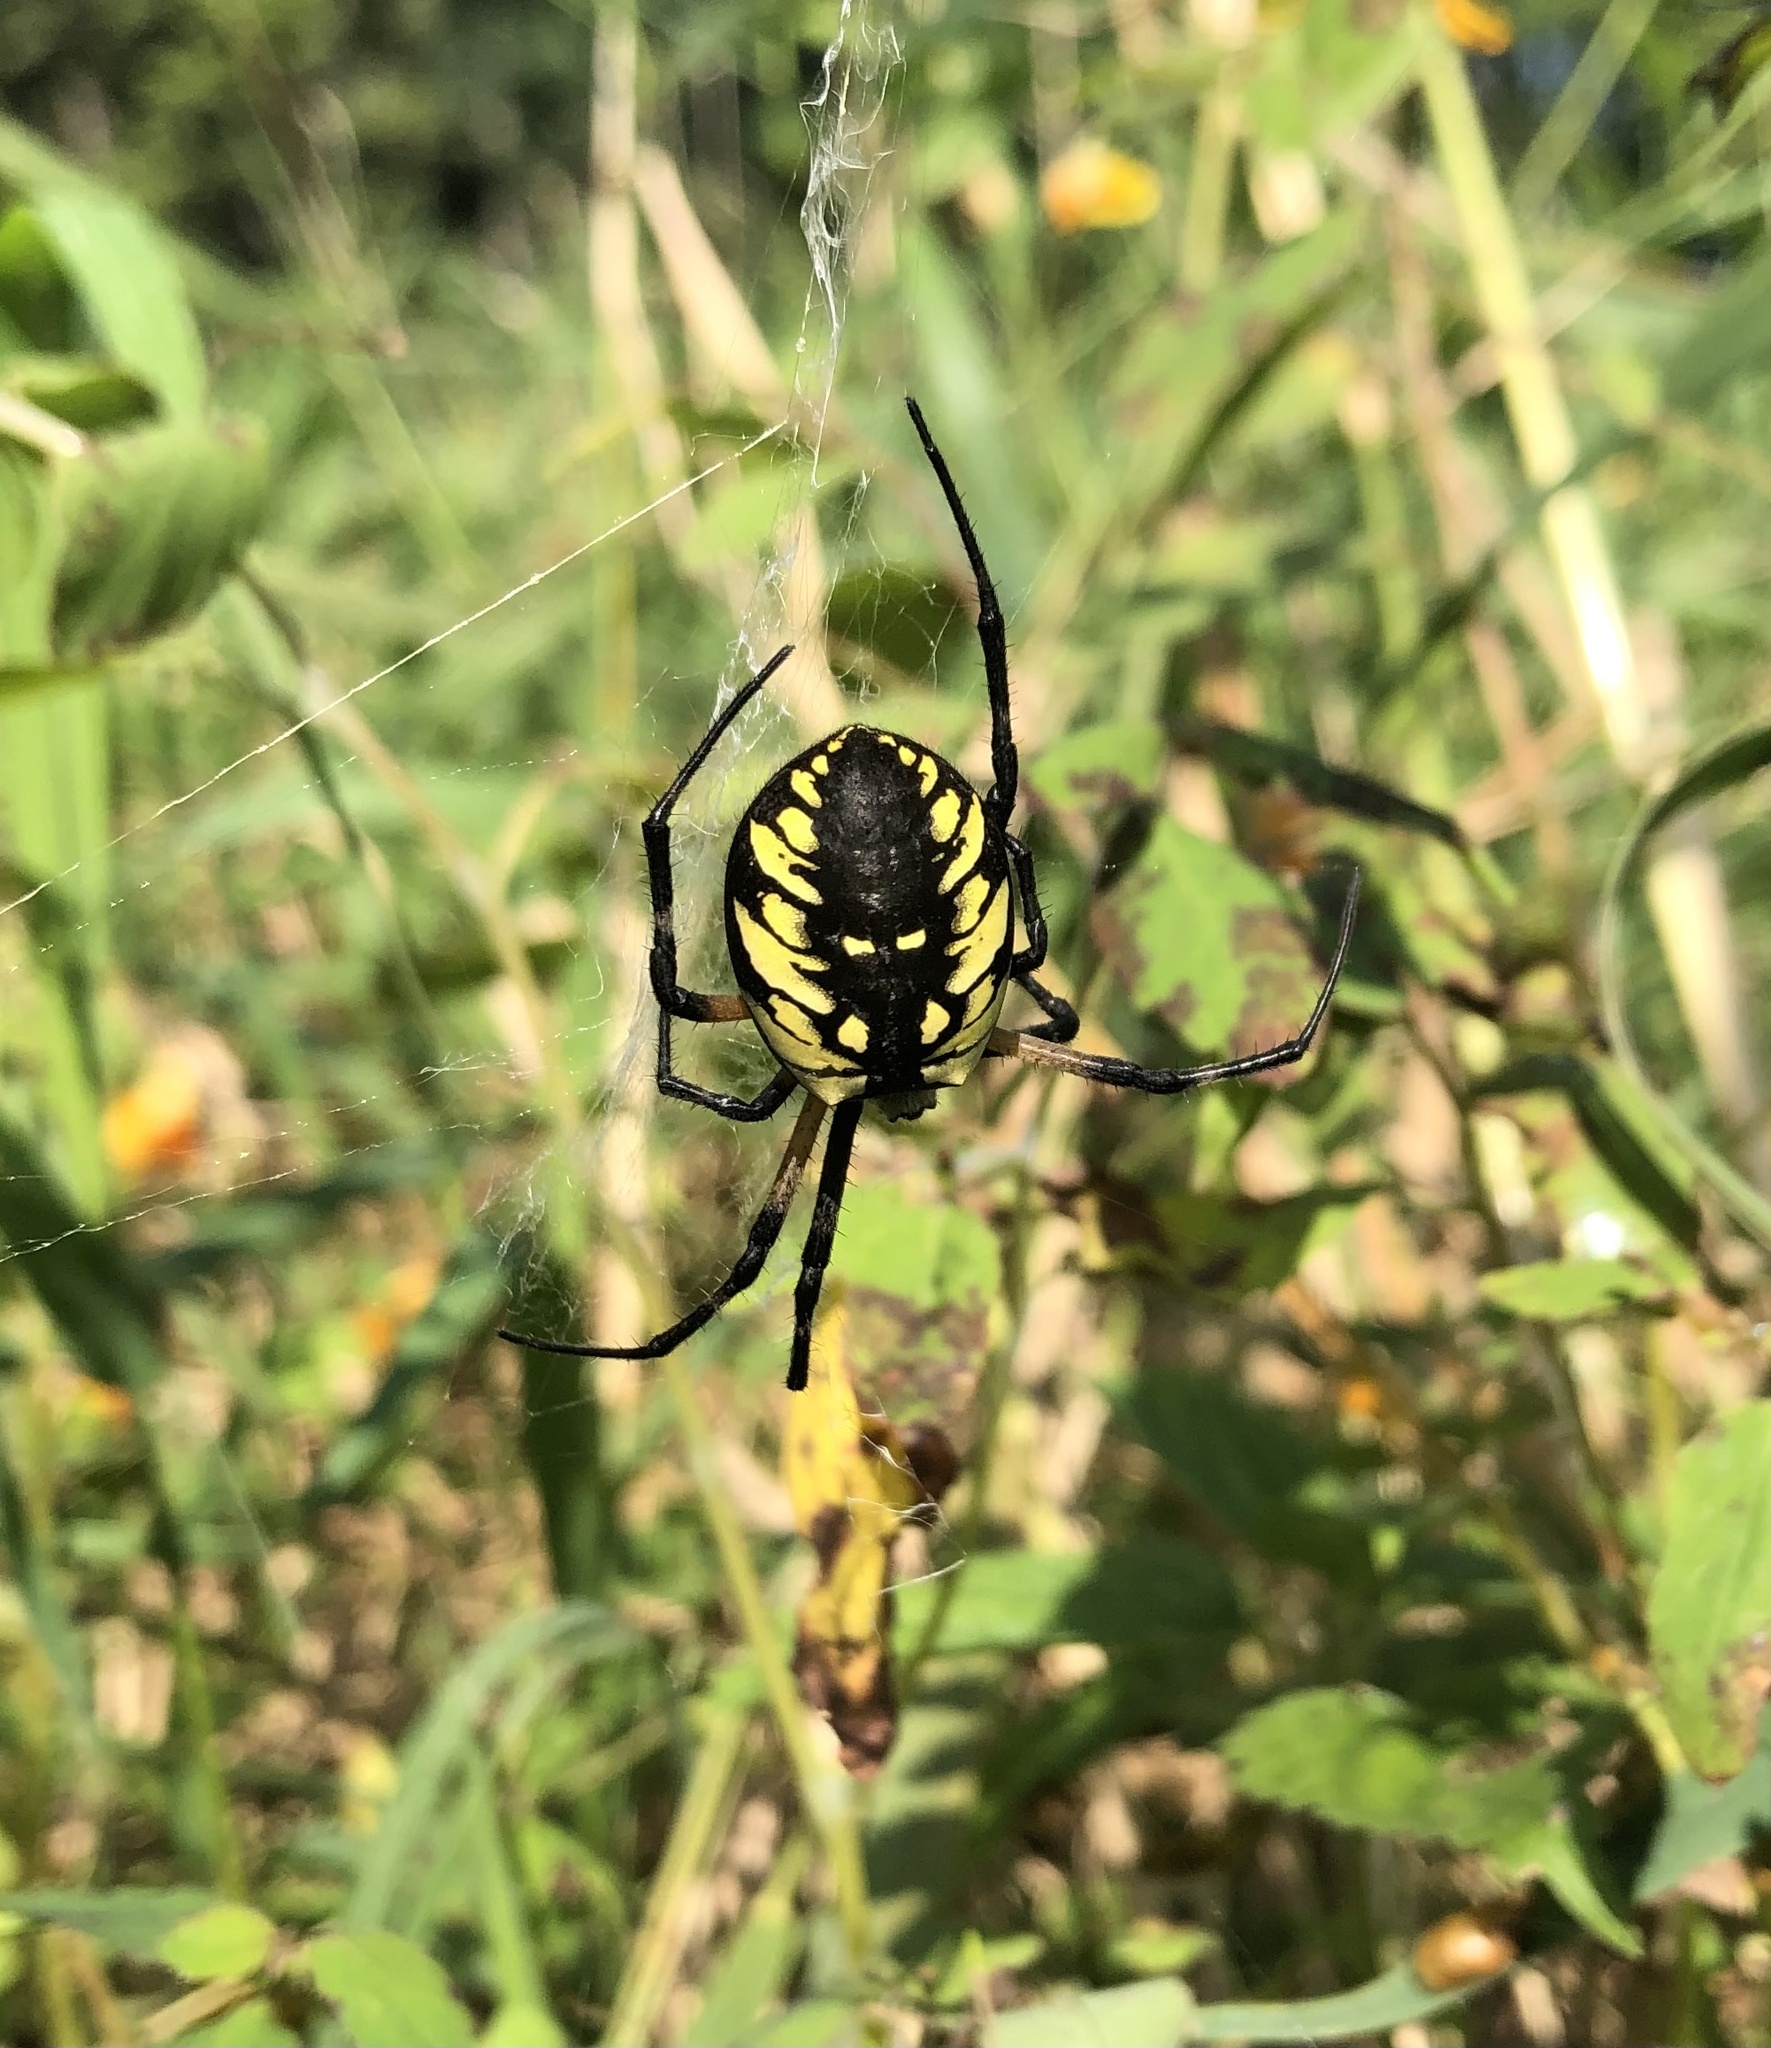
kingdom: Animalia
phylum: Arthropoda
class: Arachnida
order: Araneae
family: Araneidae
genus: Argiope
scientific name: Argiope aurantia
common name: Orb weavers
